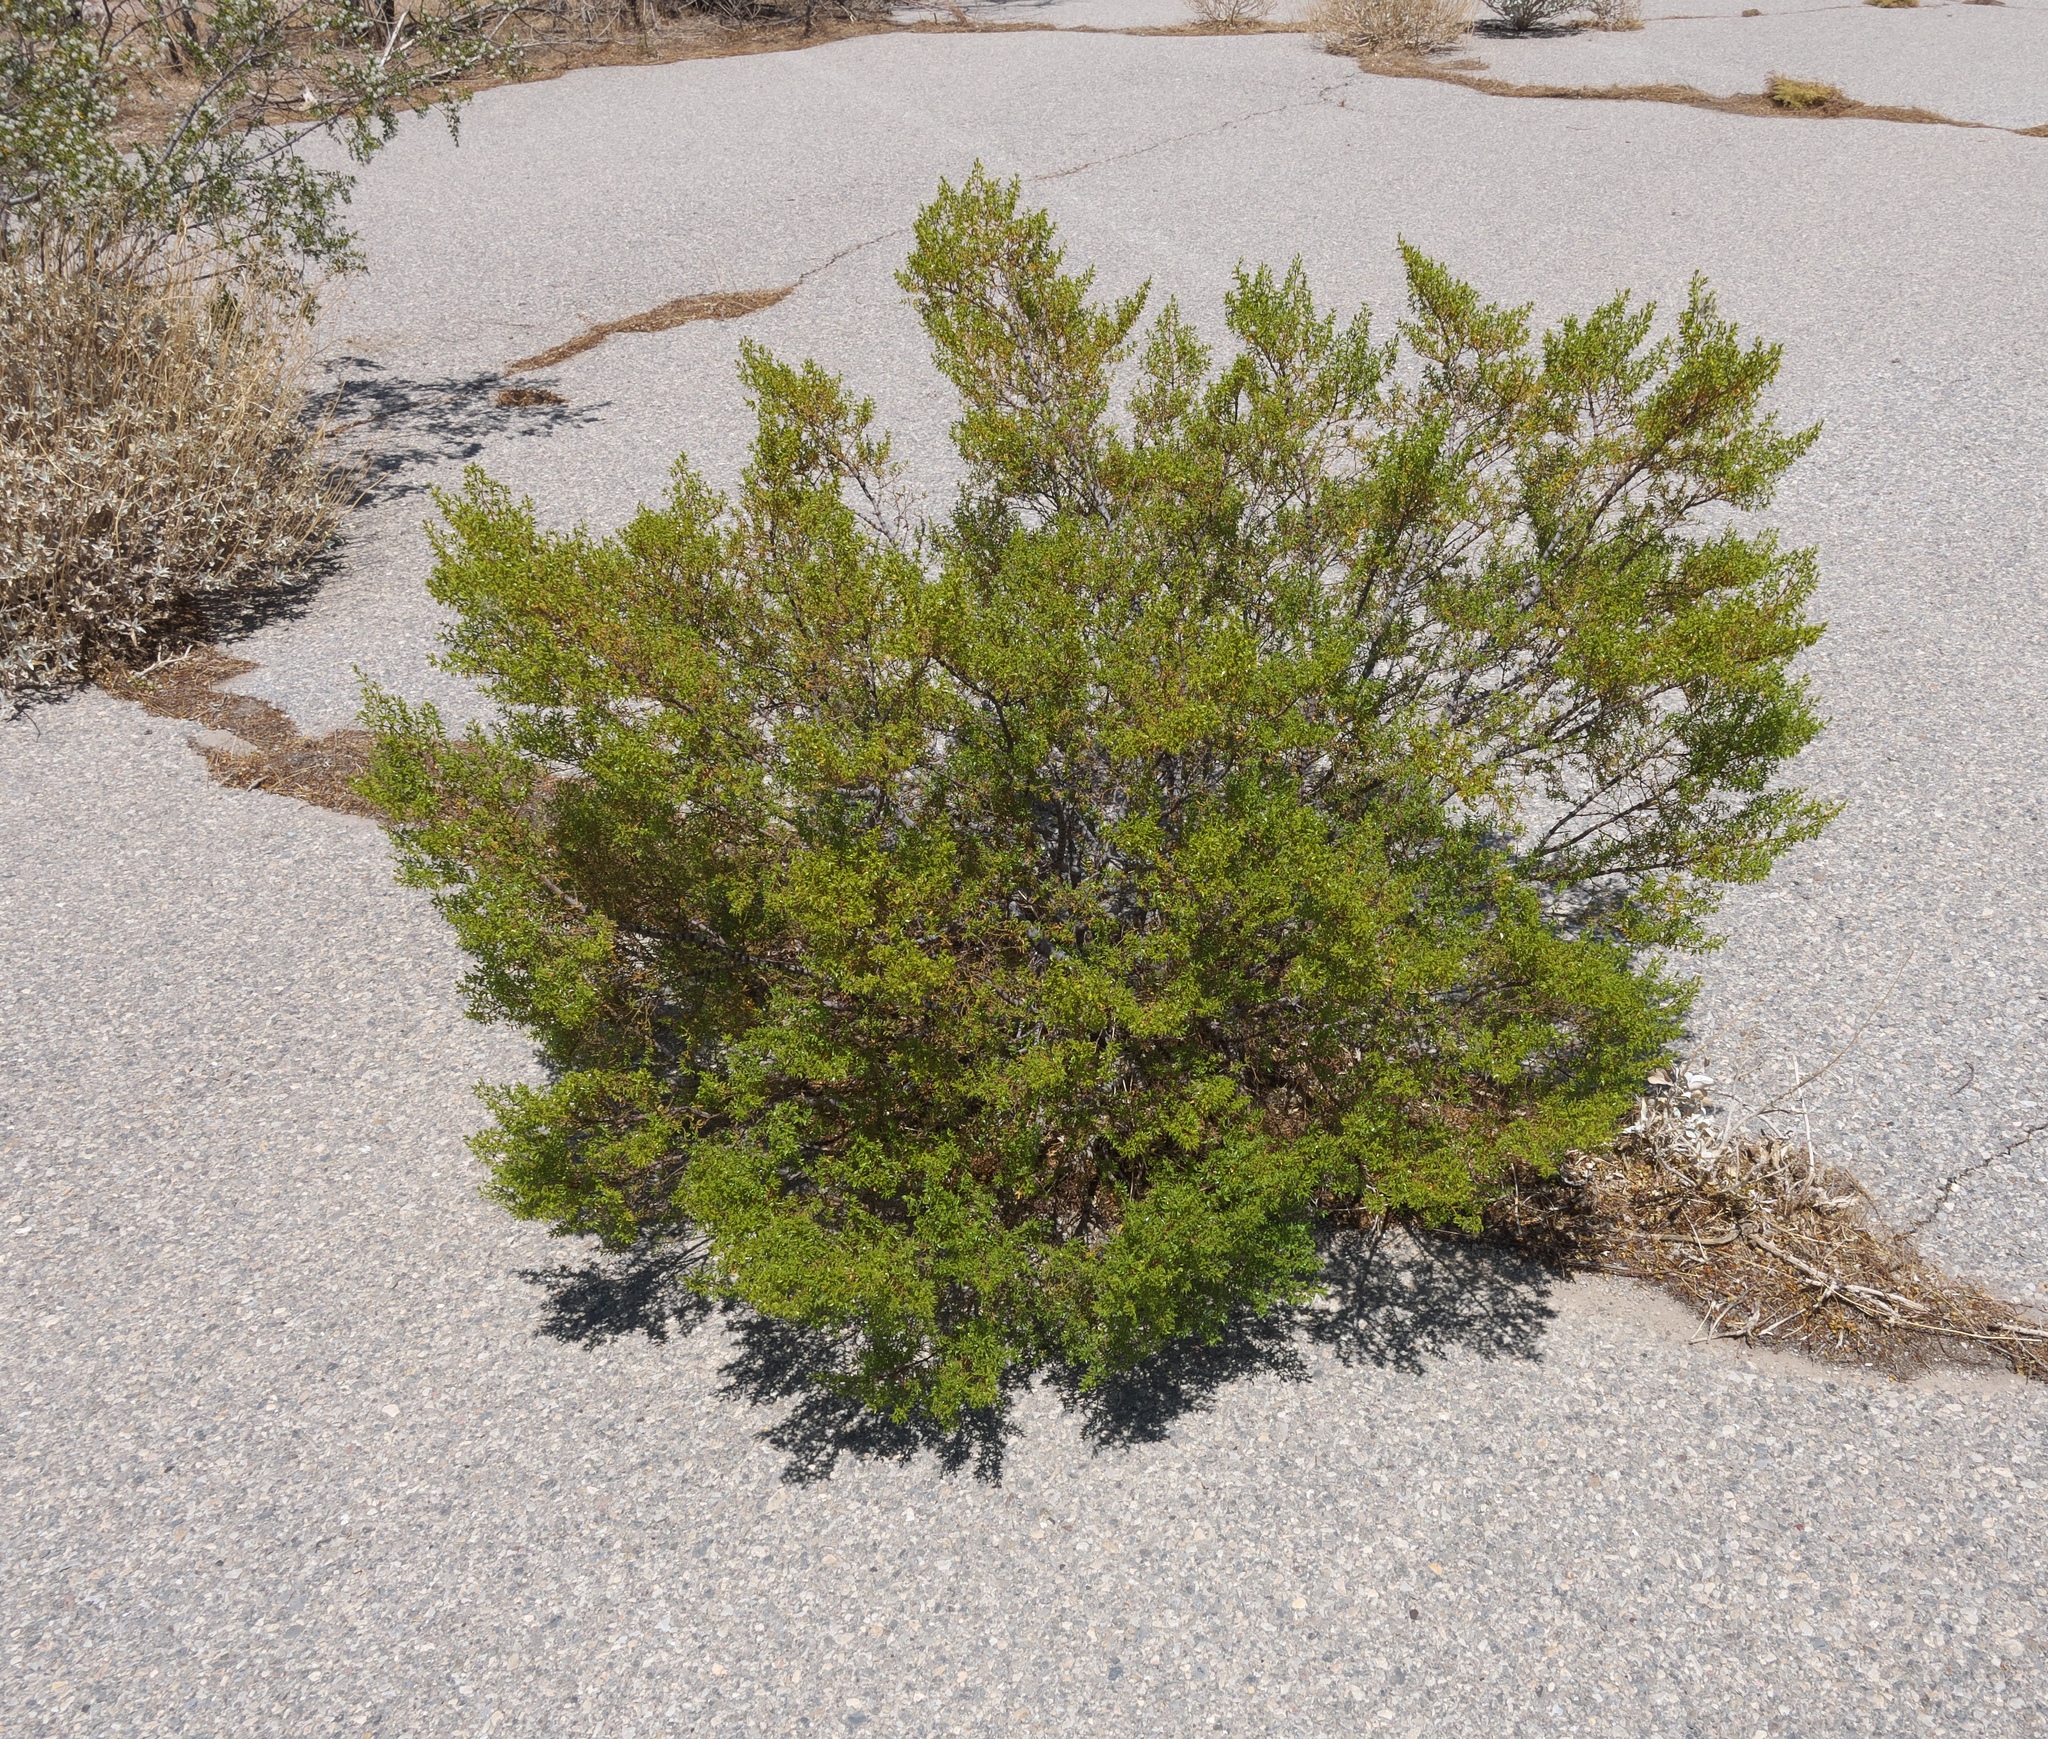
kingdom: Plantae
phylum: Tracheophyta
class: Magnoliopsida
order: Zygophyllales
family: Zygophyllaceae
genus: Larrea
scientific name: Larrea tridentata
